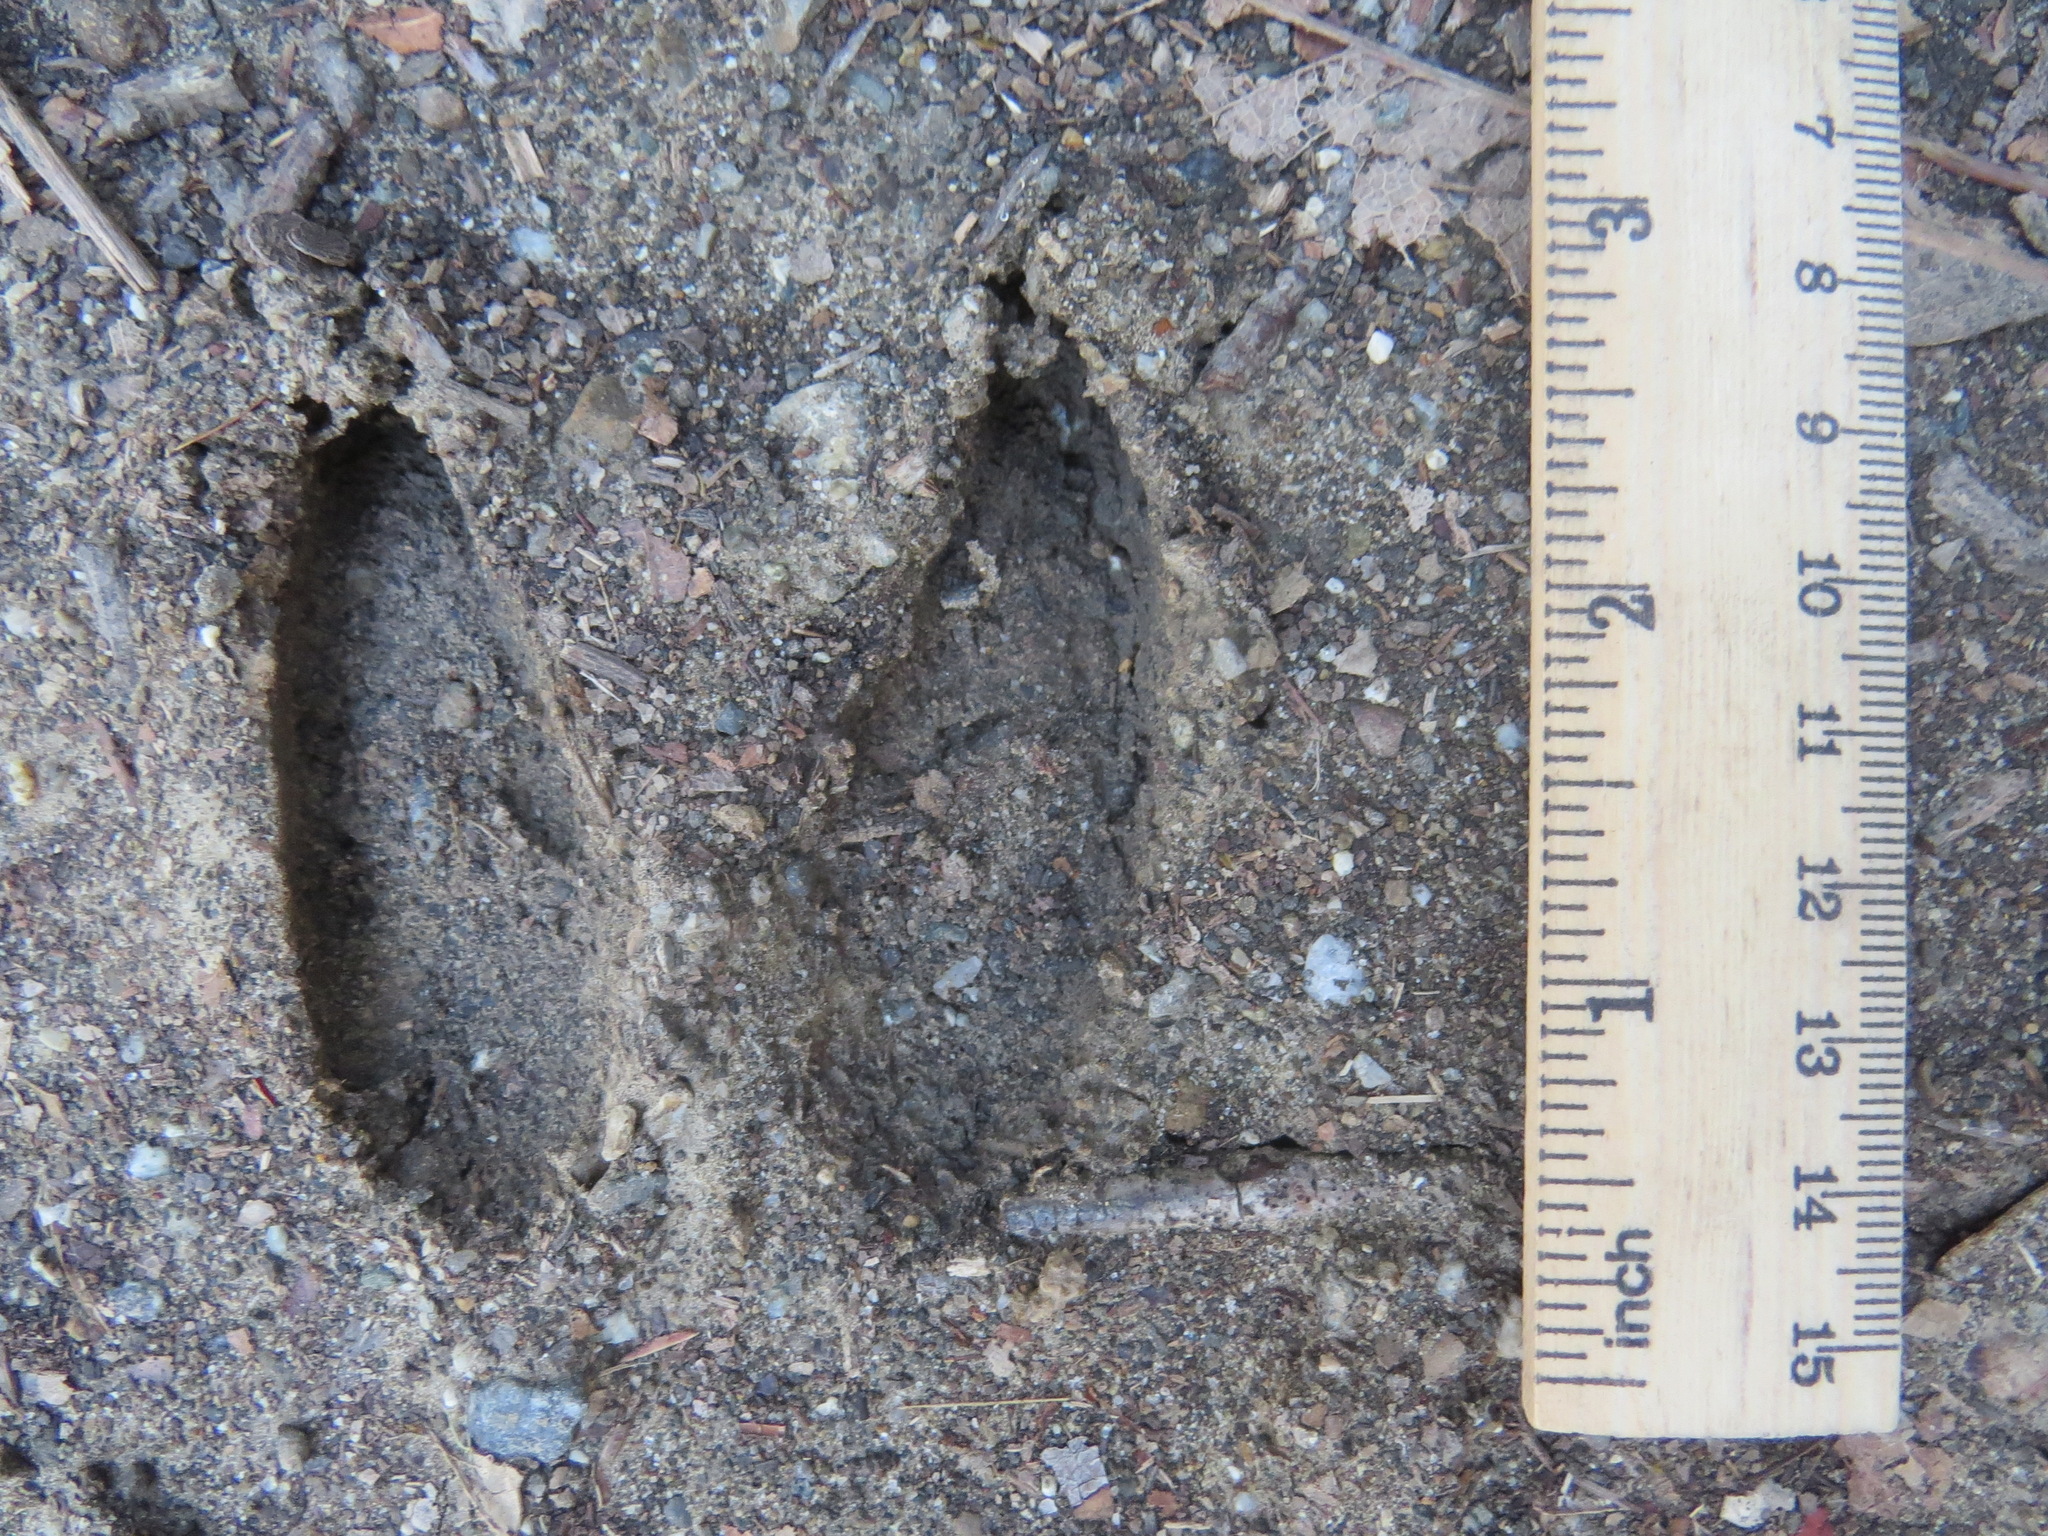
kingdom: Animalia
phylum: Chordata
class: Mammalia
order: Artiodactyla
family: Cervidae
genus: Odocoileus
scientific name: Odocoileus hemionus
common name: Mule deer
